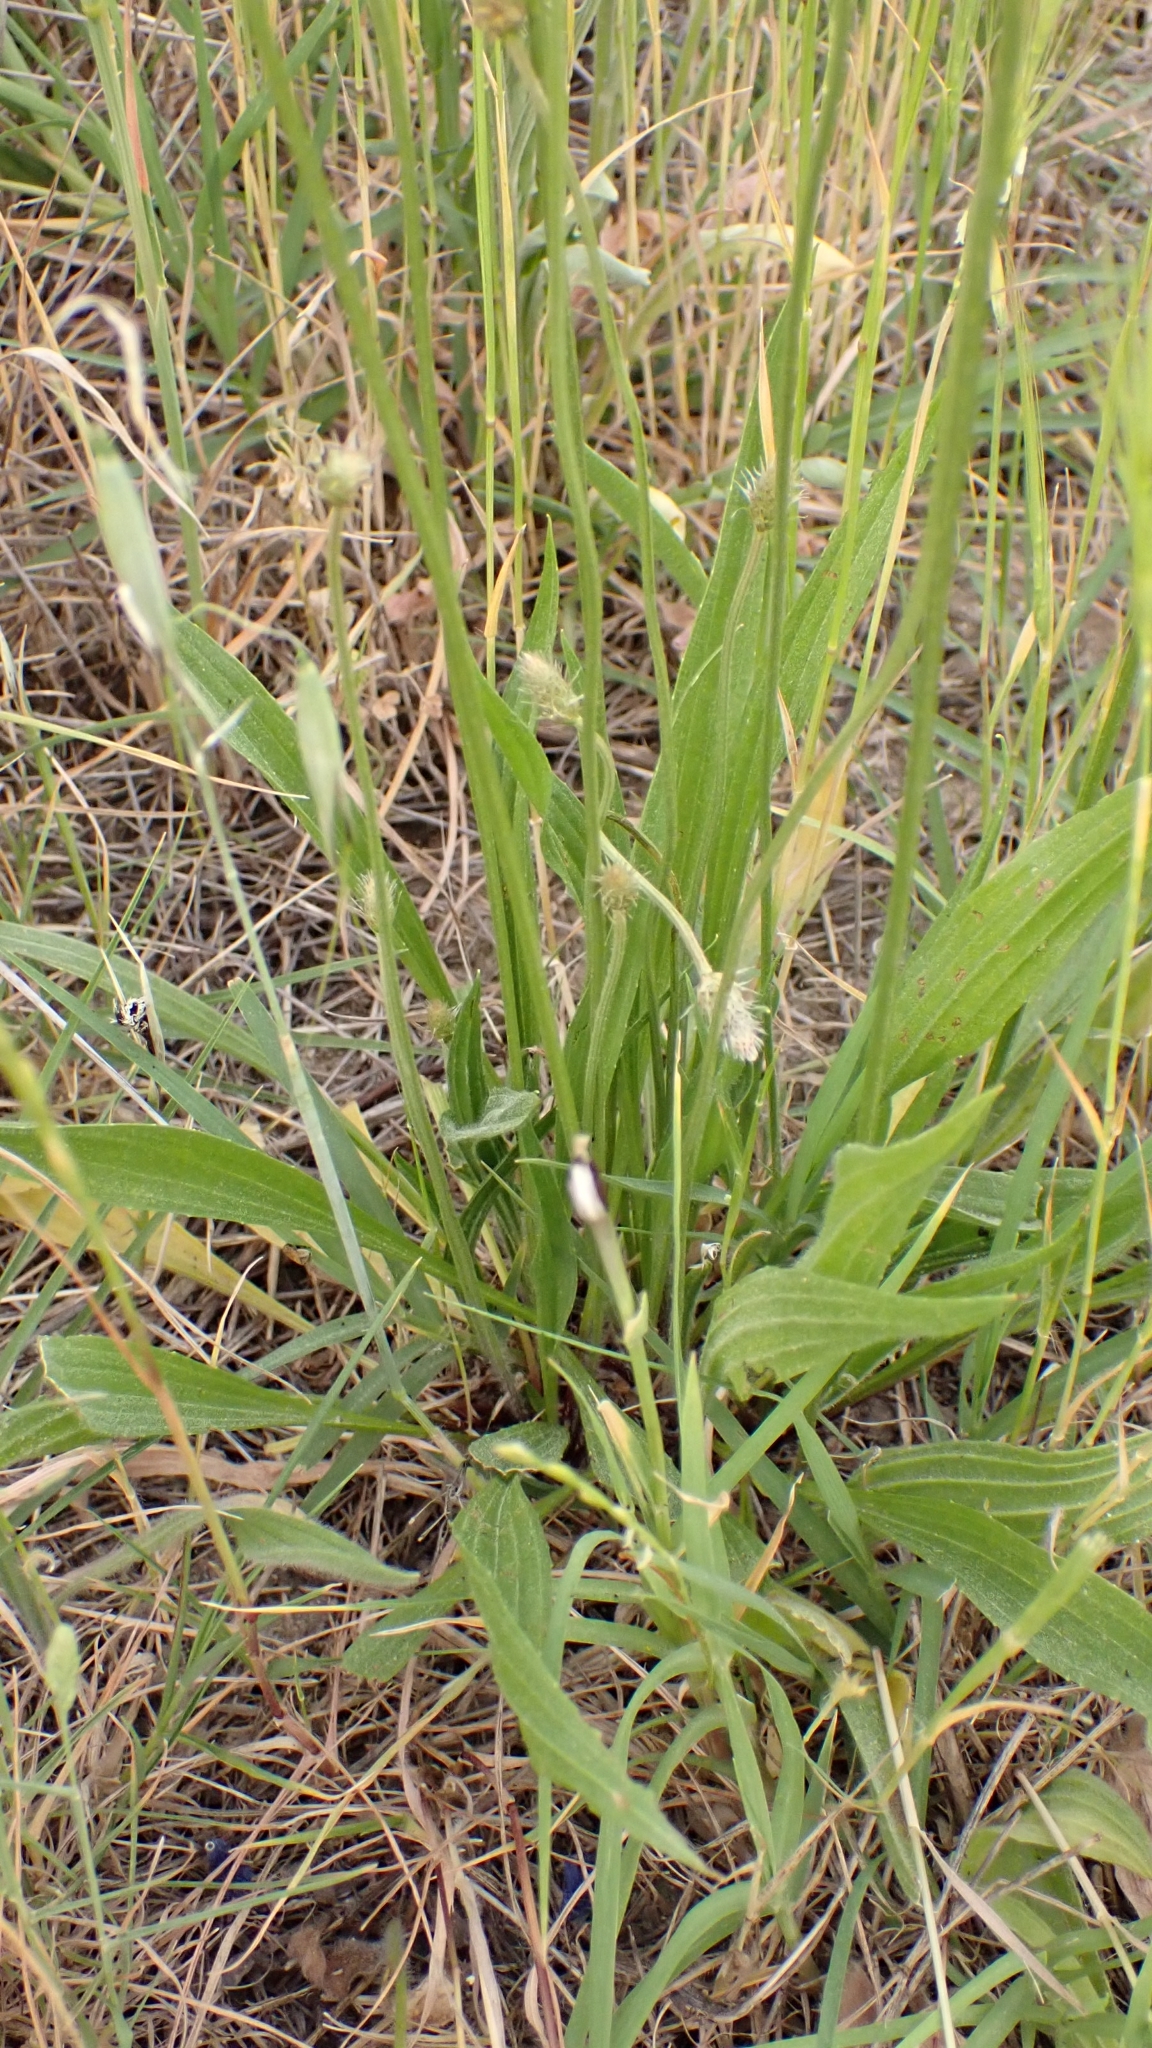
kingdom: Plantae
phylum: Tracheophyta
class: Magnoliopsida
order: Lamiales
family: Plantaginaceae
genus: Plantago
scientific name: Plantago lanceolata
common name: Ribwort plantain
